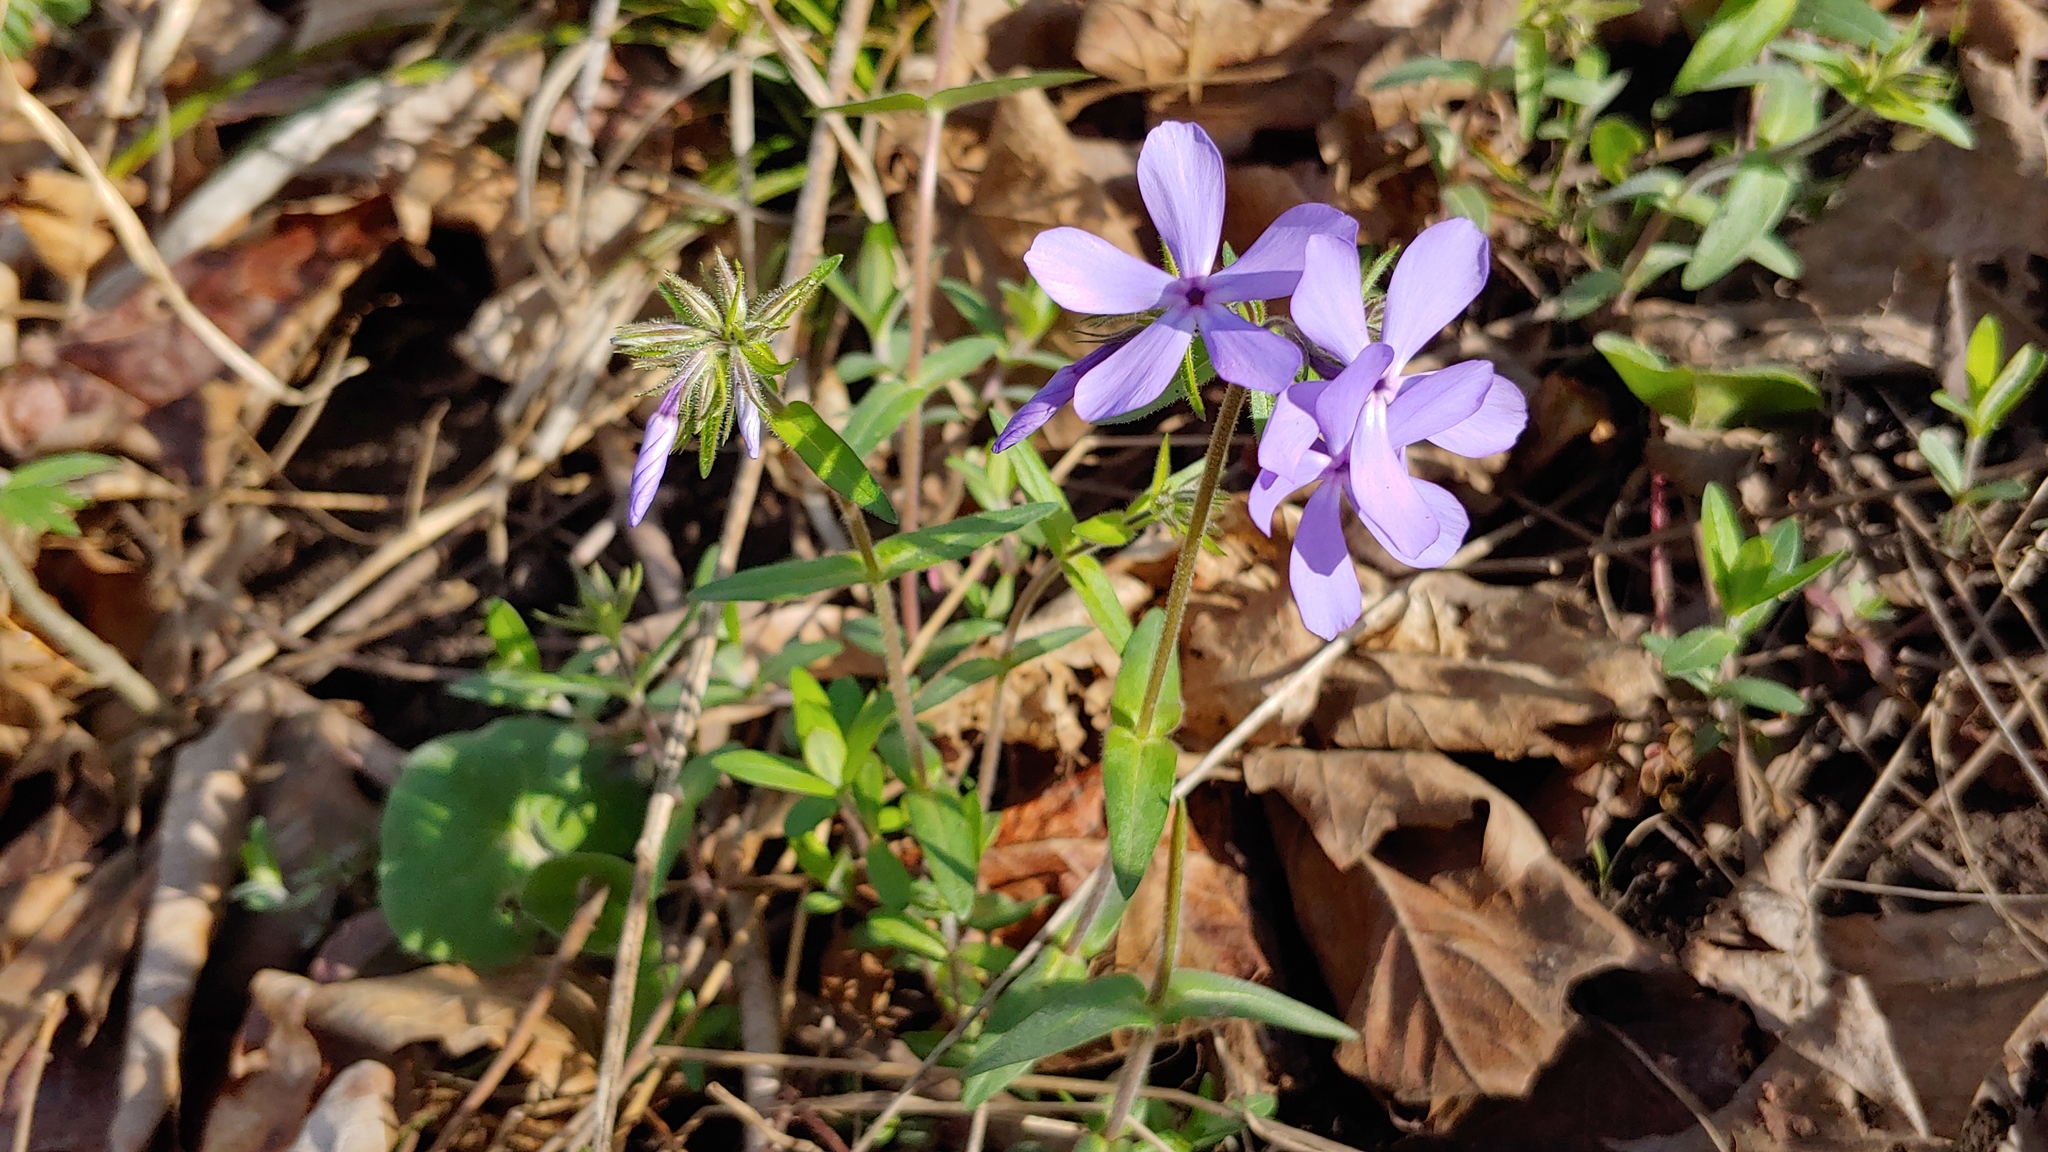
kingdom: Plantae
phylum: Tracheophyta
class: Magnoliopsida
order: Ericales
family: Polemoniaceae
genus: Phlox
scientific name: Phlox divaricata
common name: Blue phlox
